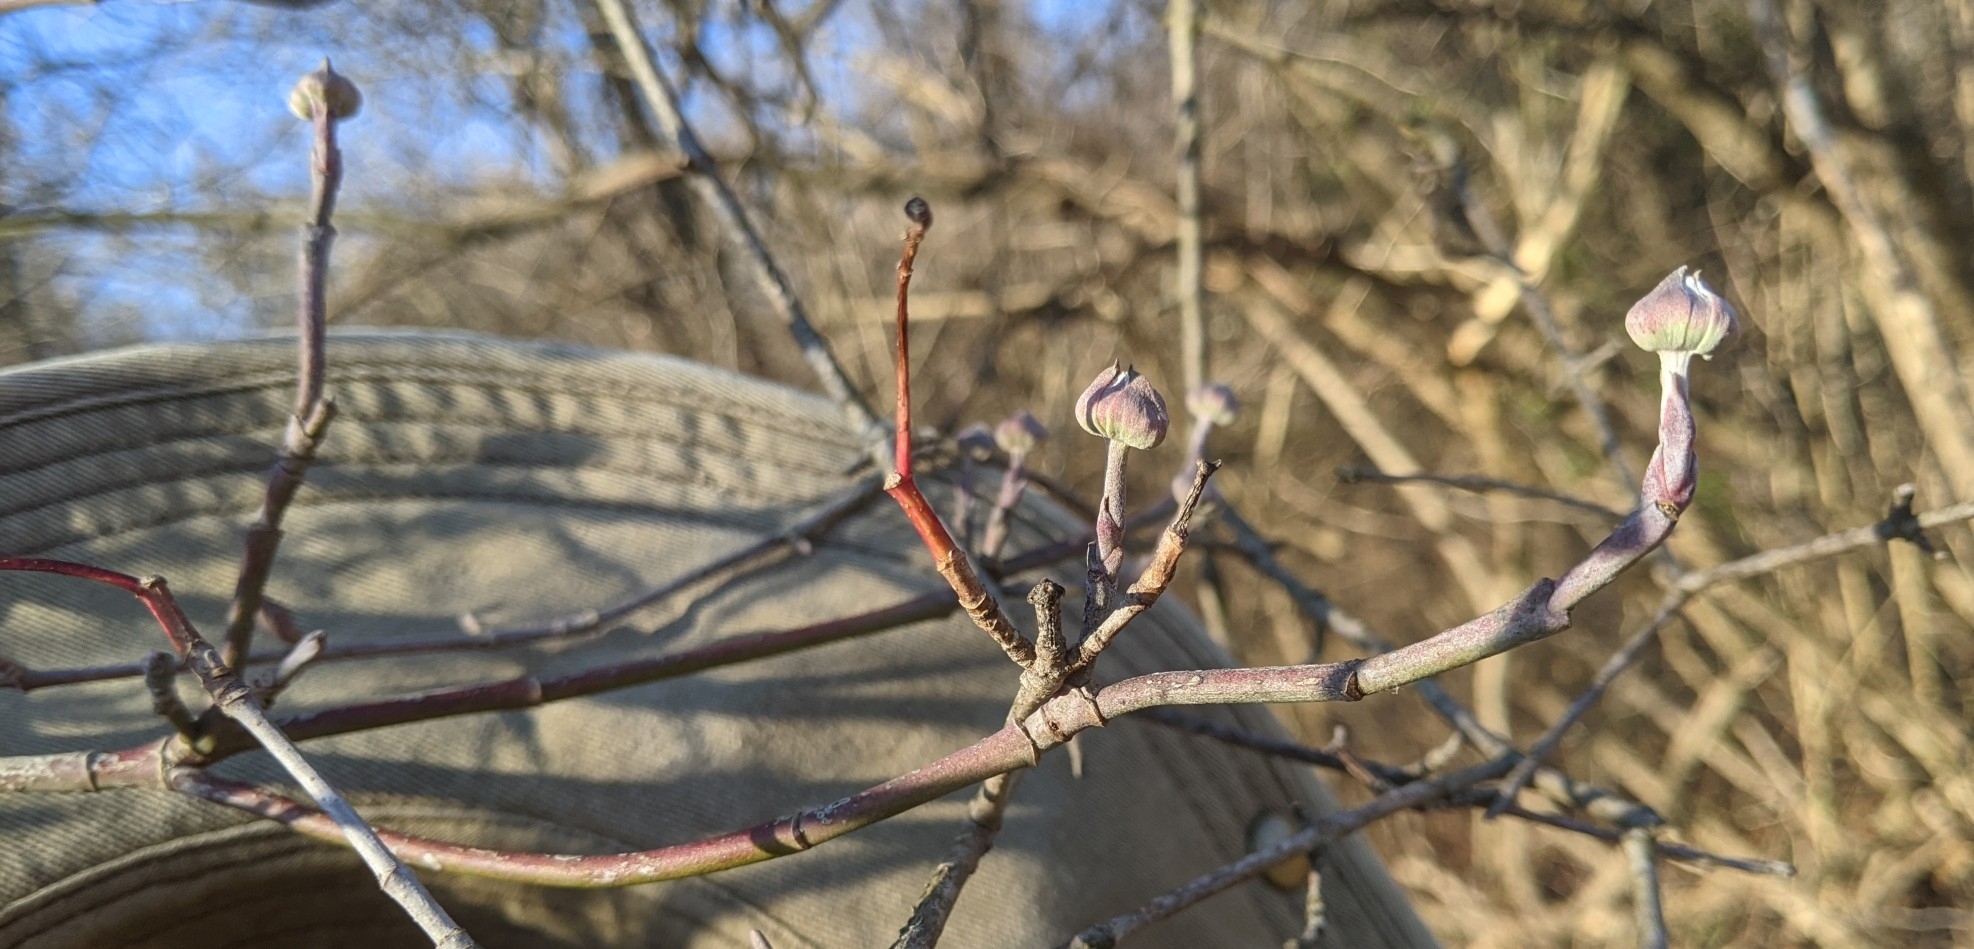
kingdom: Plantae
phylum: Tracheophyta
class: Magnoliopsida
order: Cornales
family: Cornaceae
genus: Cornus
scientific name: Cornus florida
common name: Flowering dogwood
